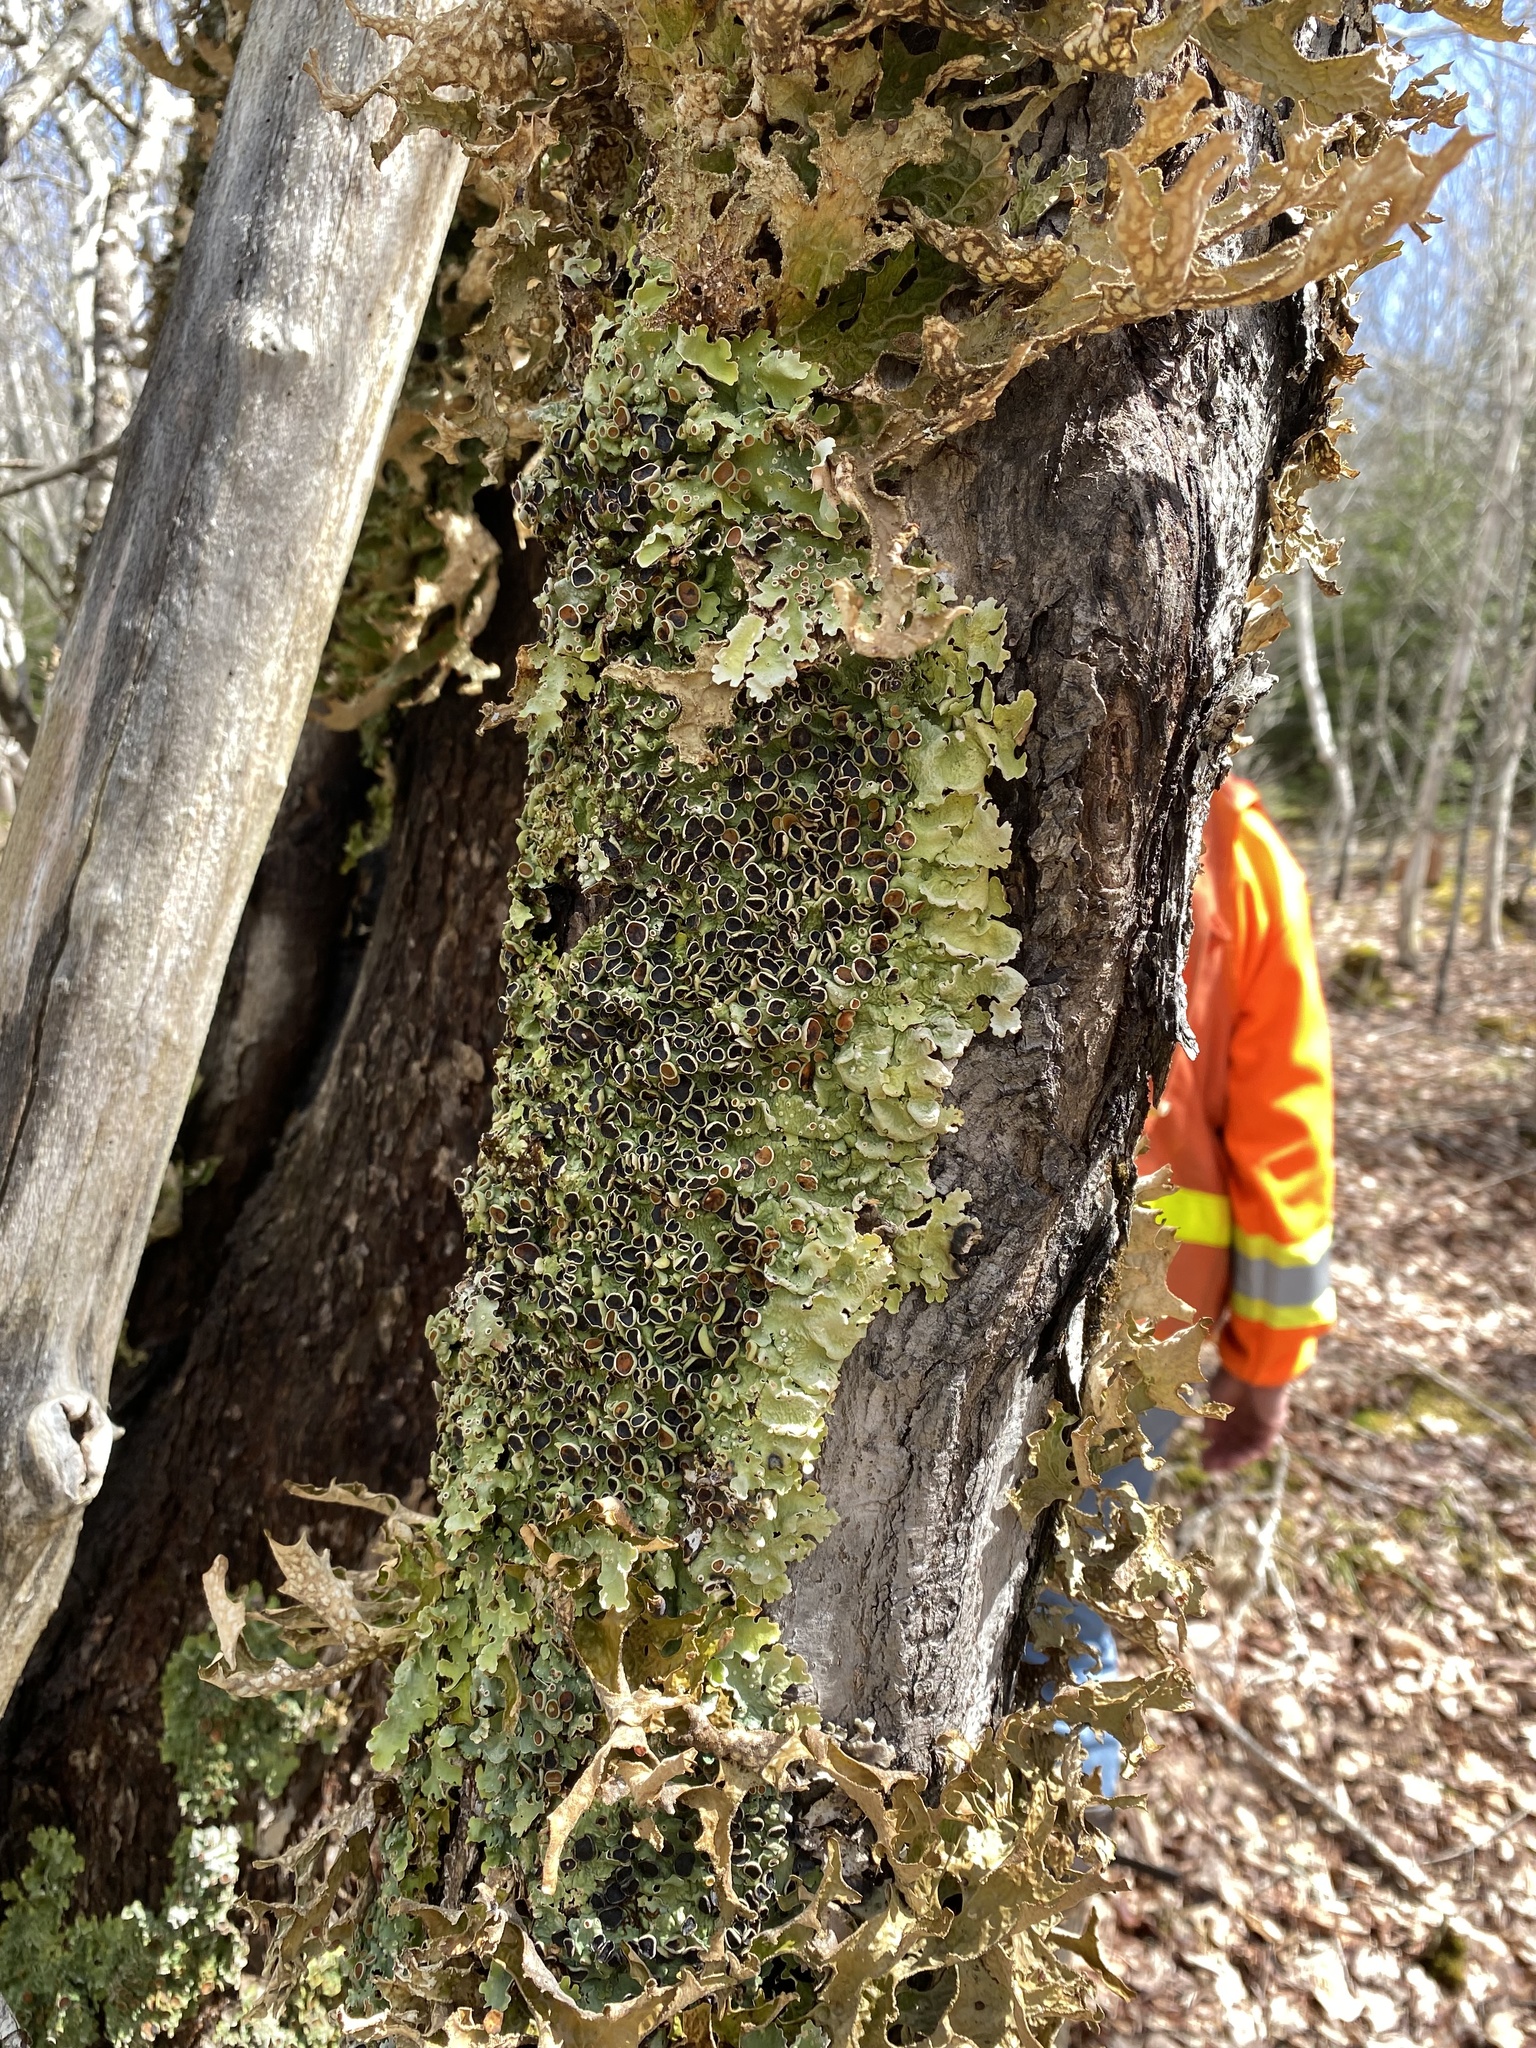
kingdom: Fungi
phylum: Ascomycota
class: Lecanoromycetes
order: Peltigerales
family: Lobariaceae
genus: Ricasolia
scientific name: Ricasolia quercizans
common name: Smooth lungwort
